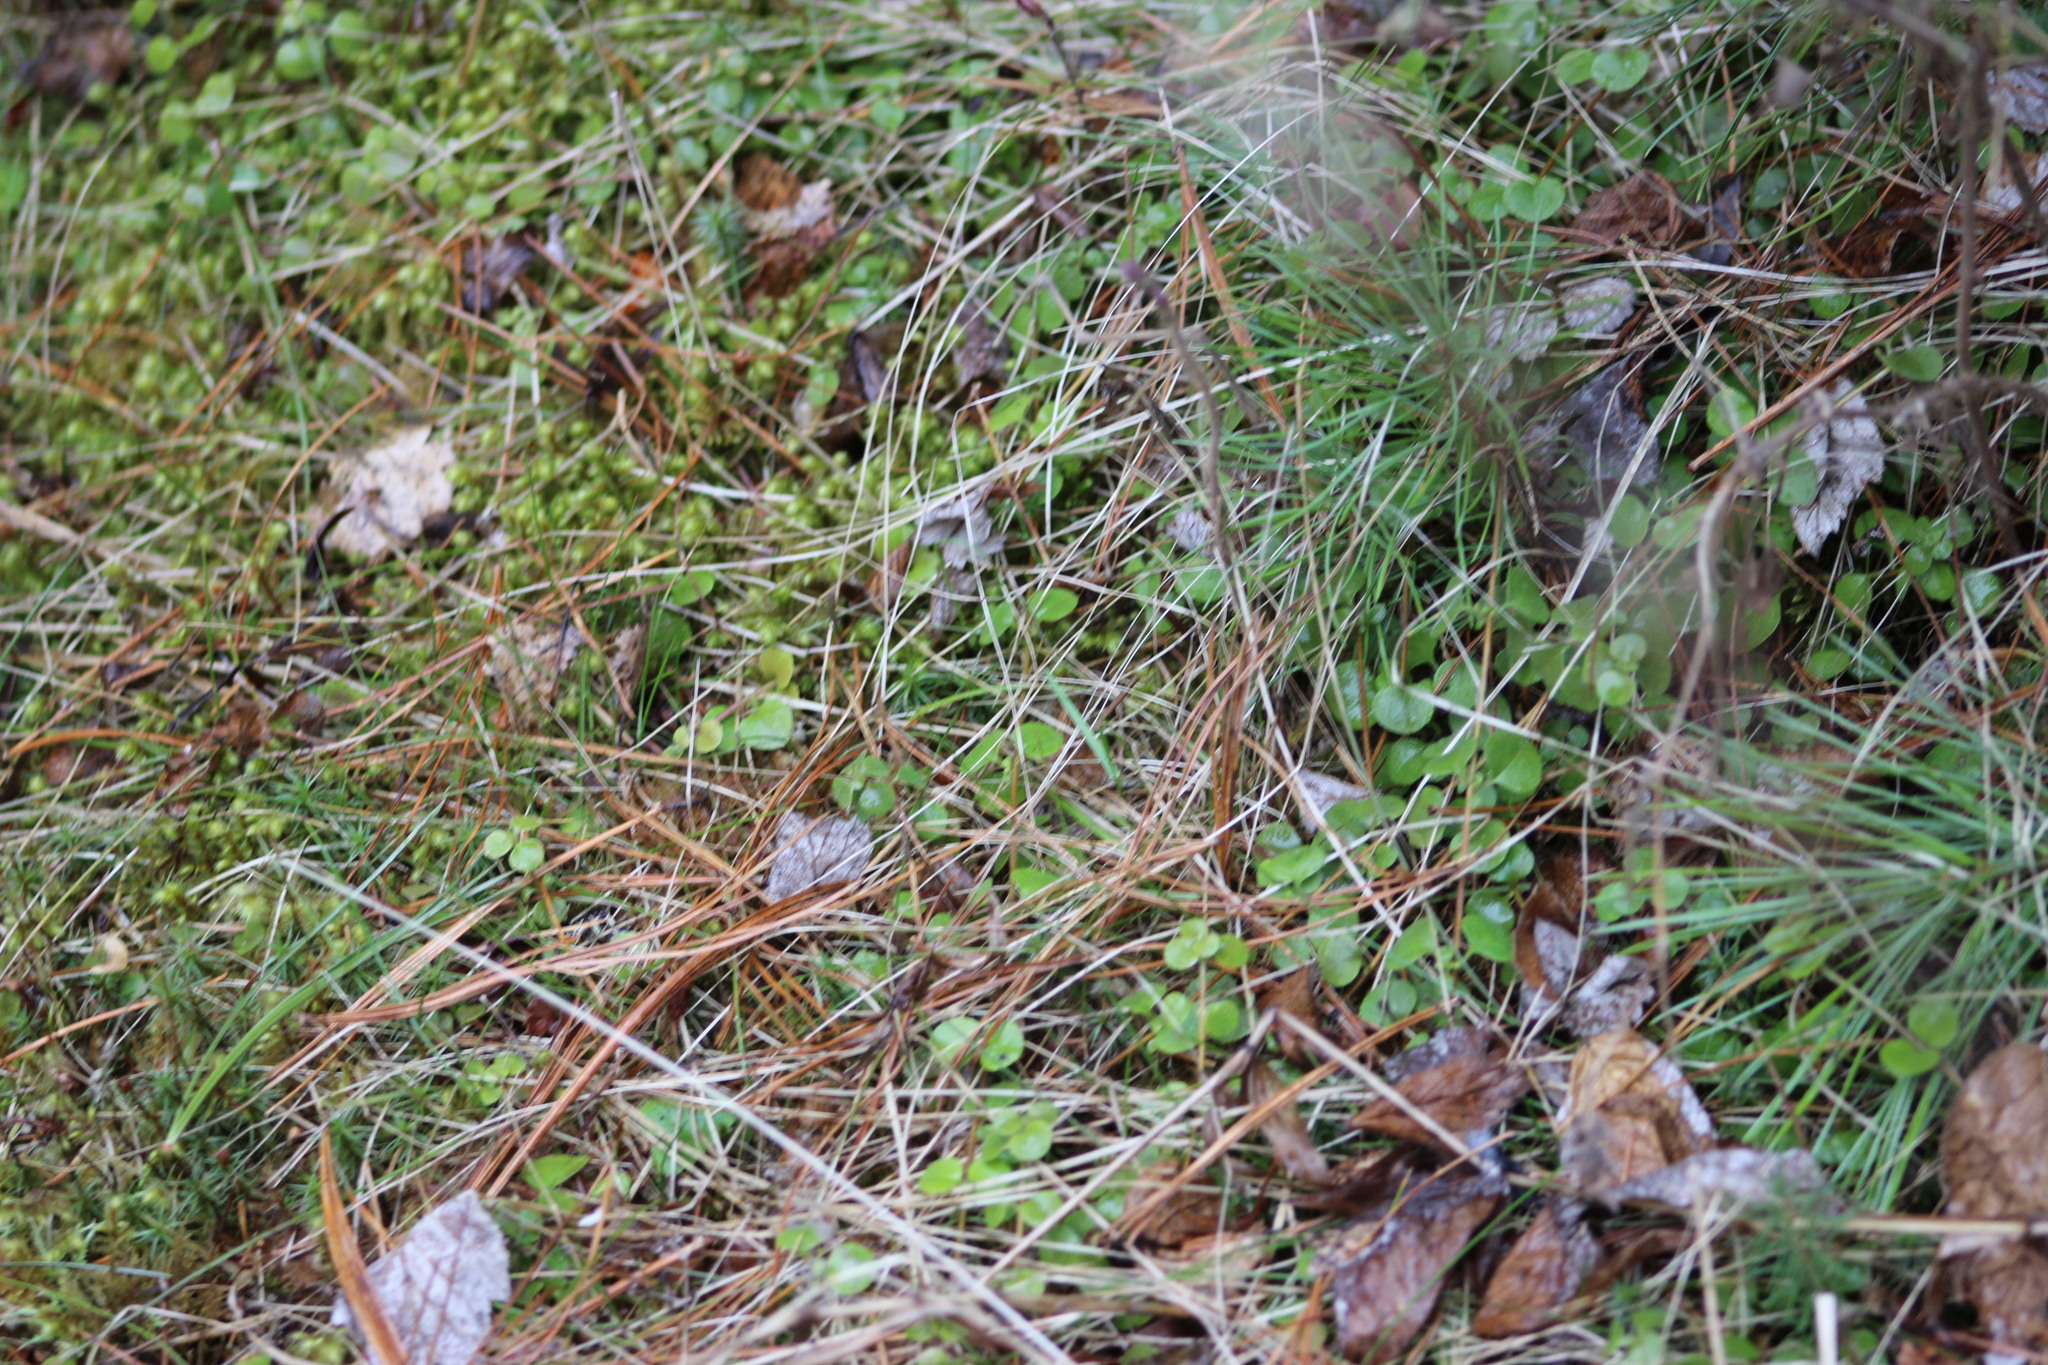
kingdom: Plantae
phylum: Tracheophyta
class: Pinopsida
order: Pinales
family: Pinaceae
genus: Pinus
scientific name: Pinus sibirica
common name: Siberian pine
